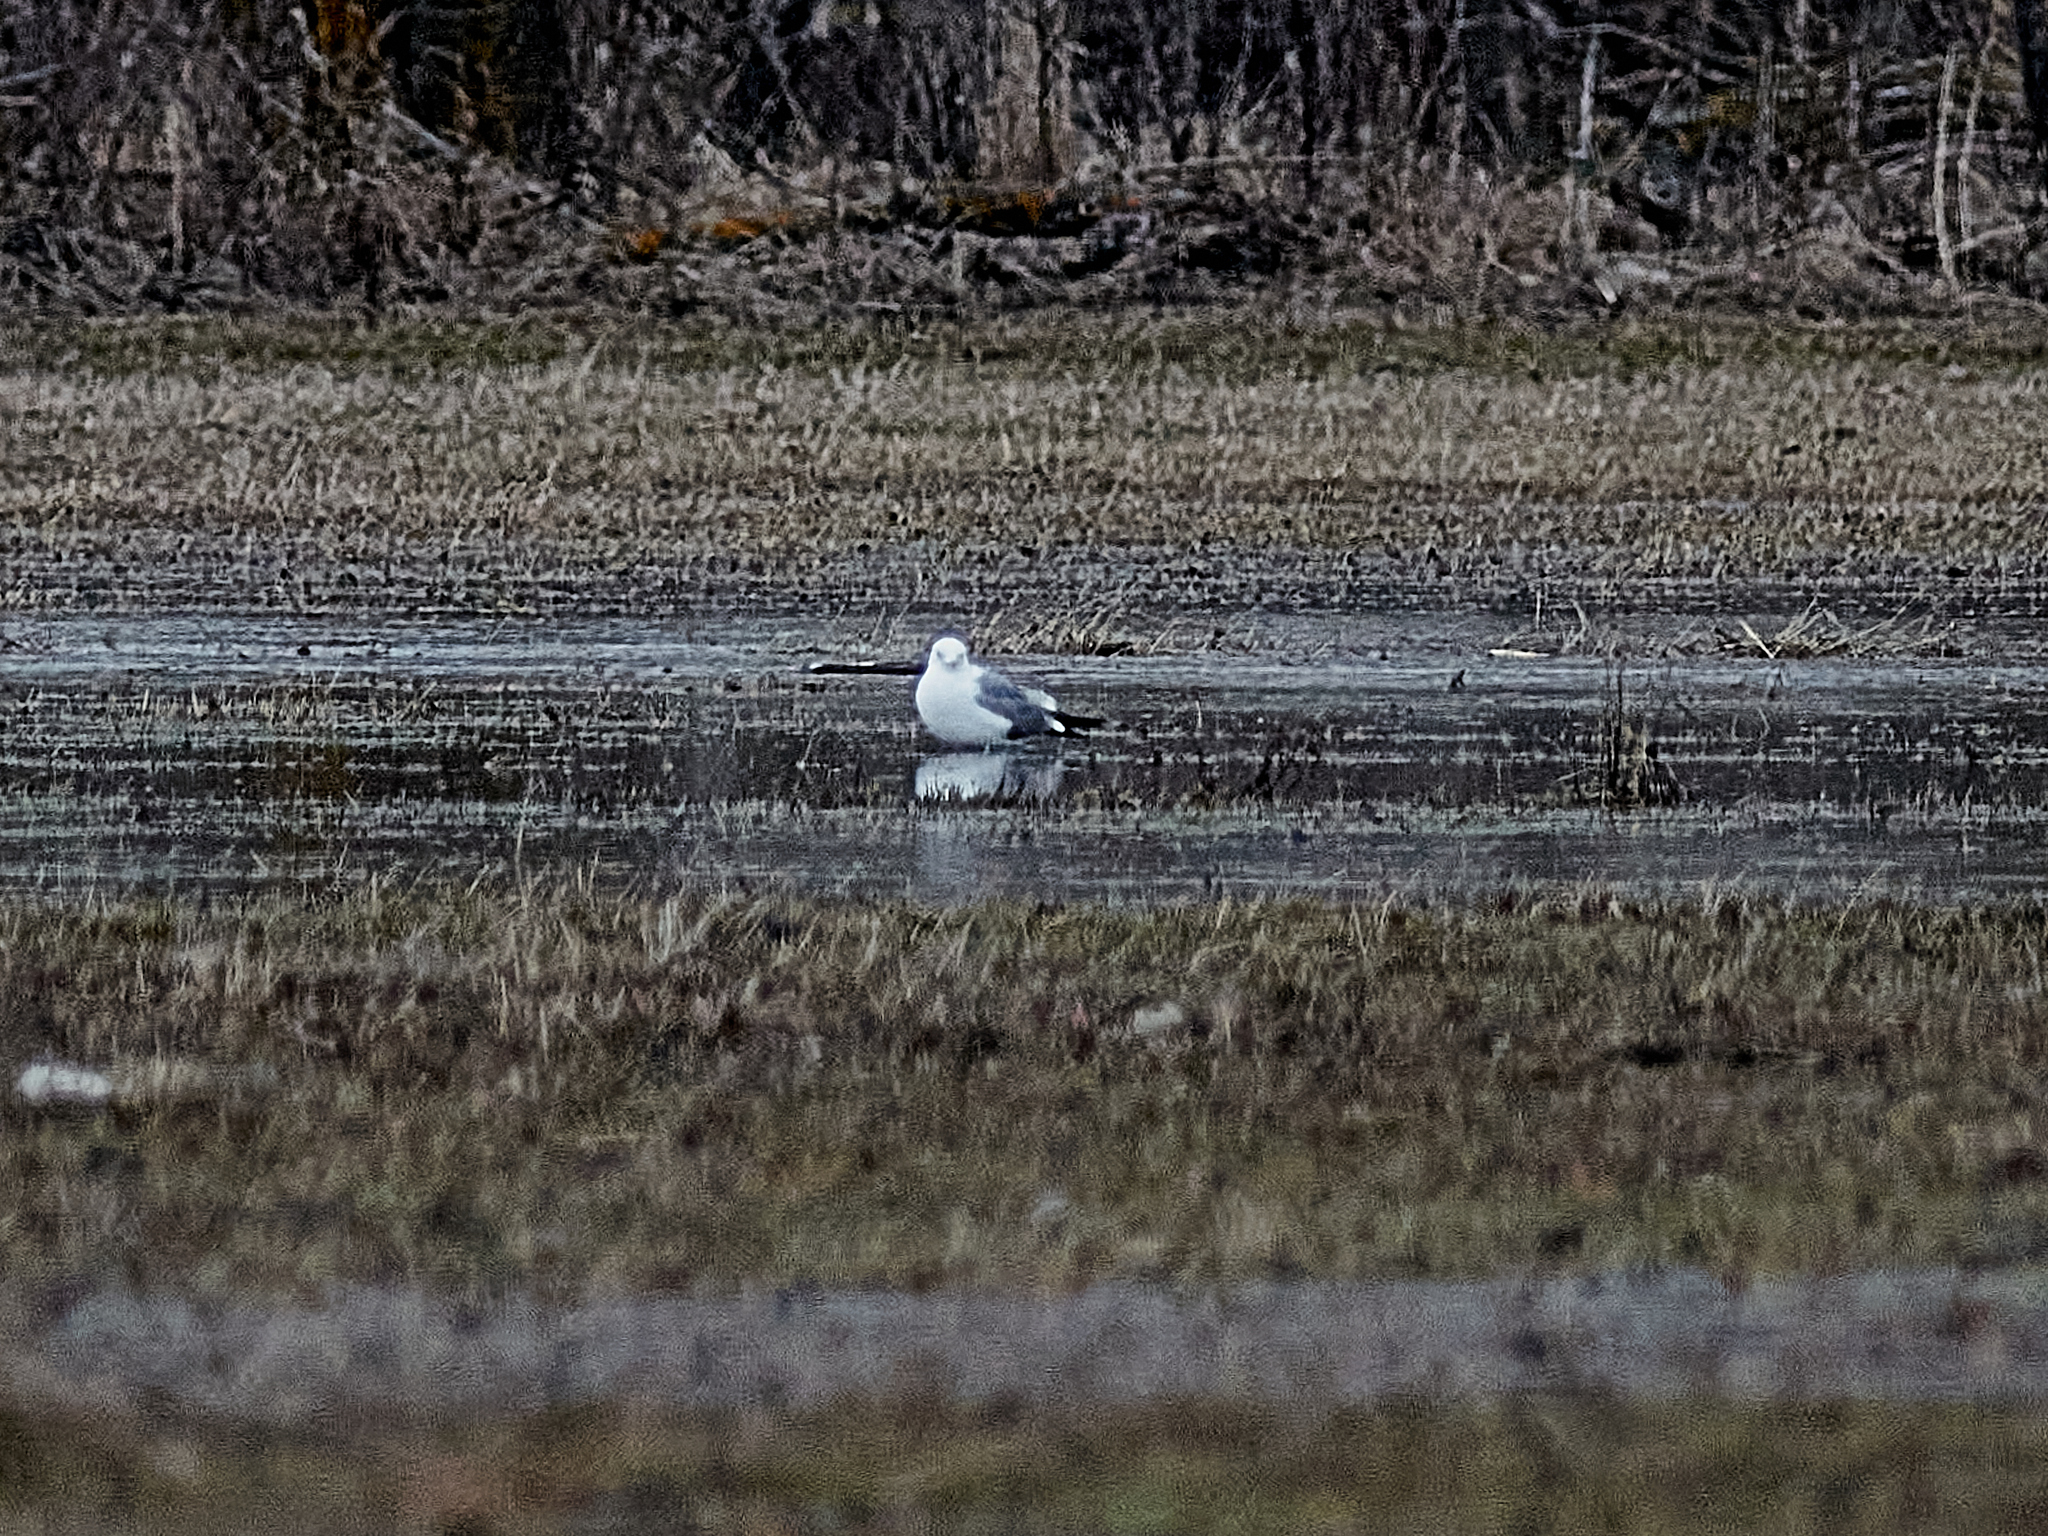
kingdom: Animalia
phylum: Chordata
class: Aves
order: Charadriiformes
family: Laridae
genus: Larus
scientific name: Larus canus
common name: Mew gull
